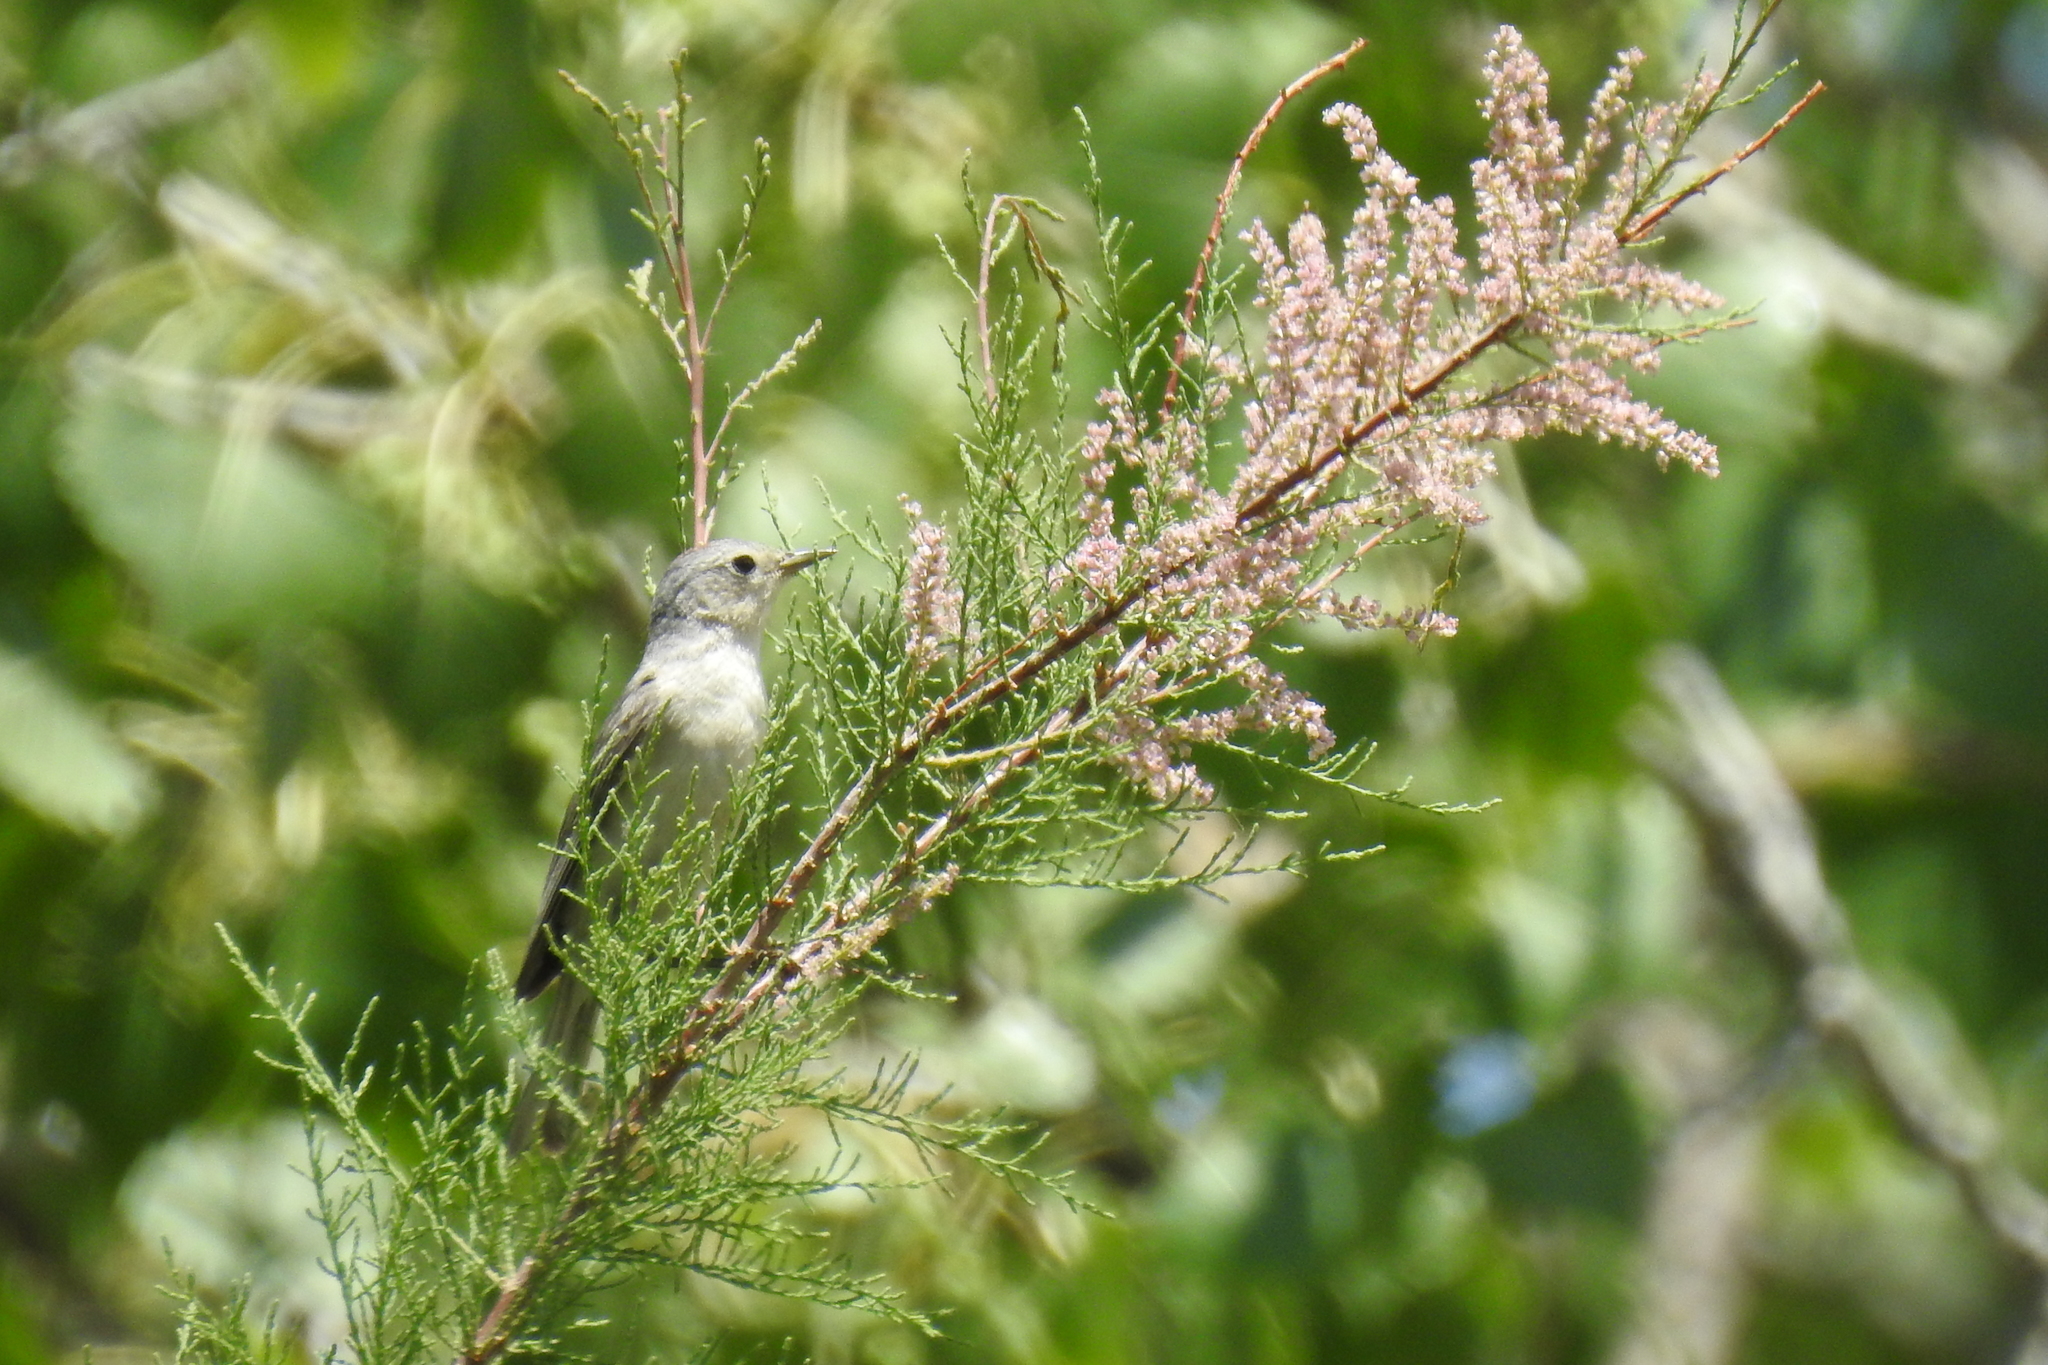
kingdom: Animalia
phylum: Chordata
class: Aves
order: Passeriformes
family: Parulidae
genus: Leiothlypis
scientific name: Leiothlypis luciae
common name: Lucy's warbler
